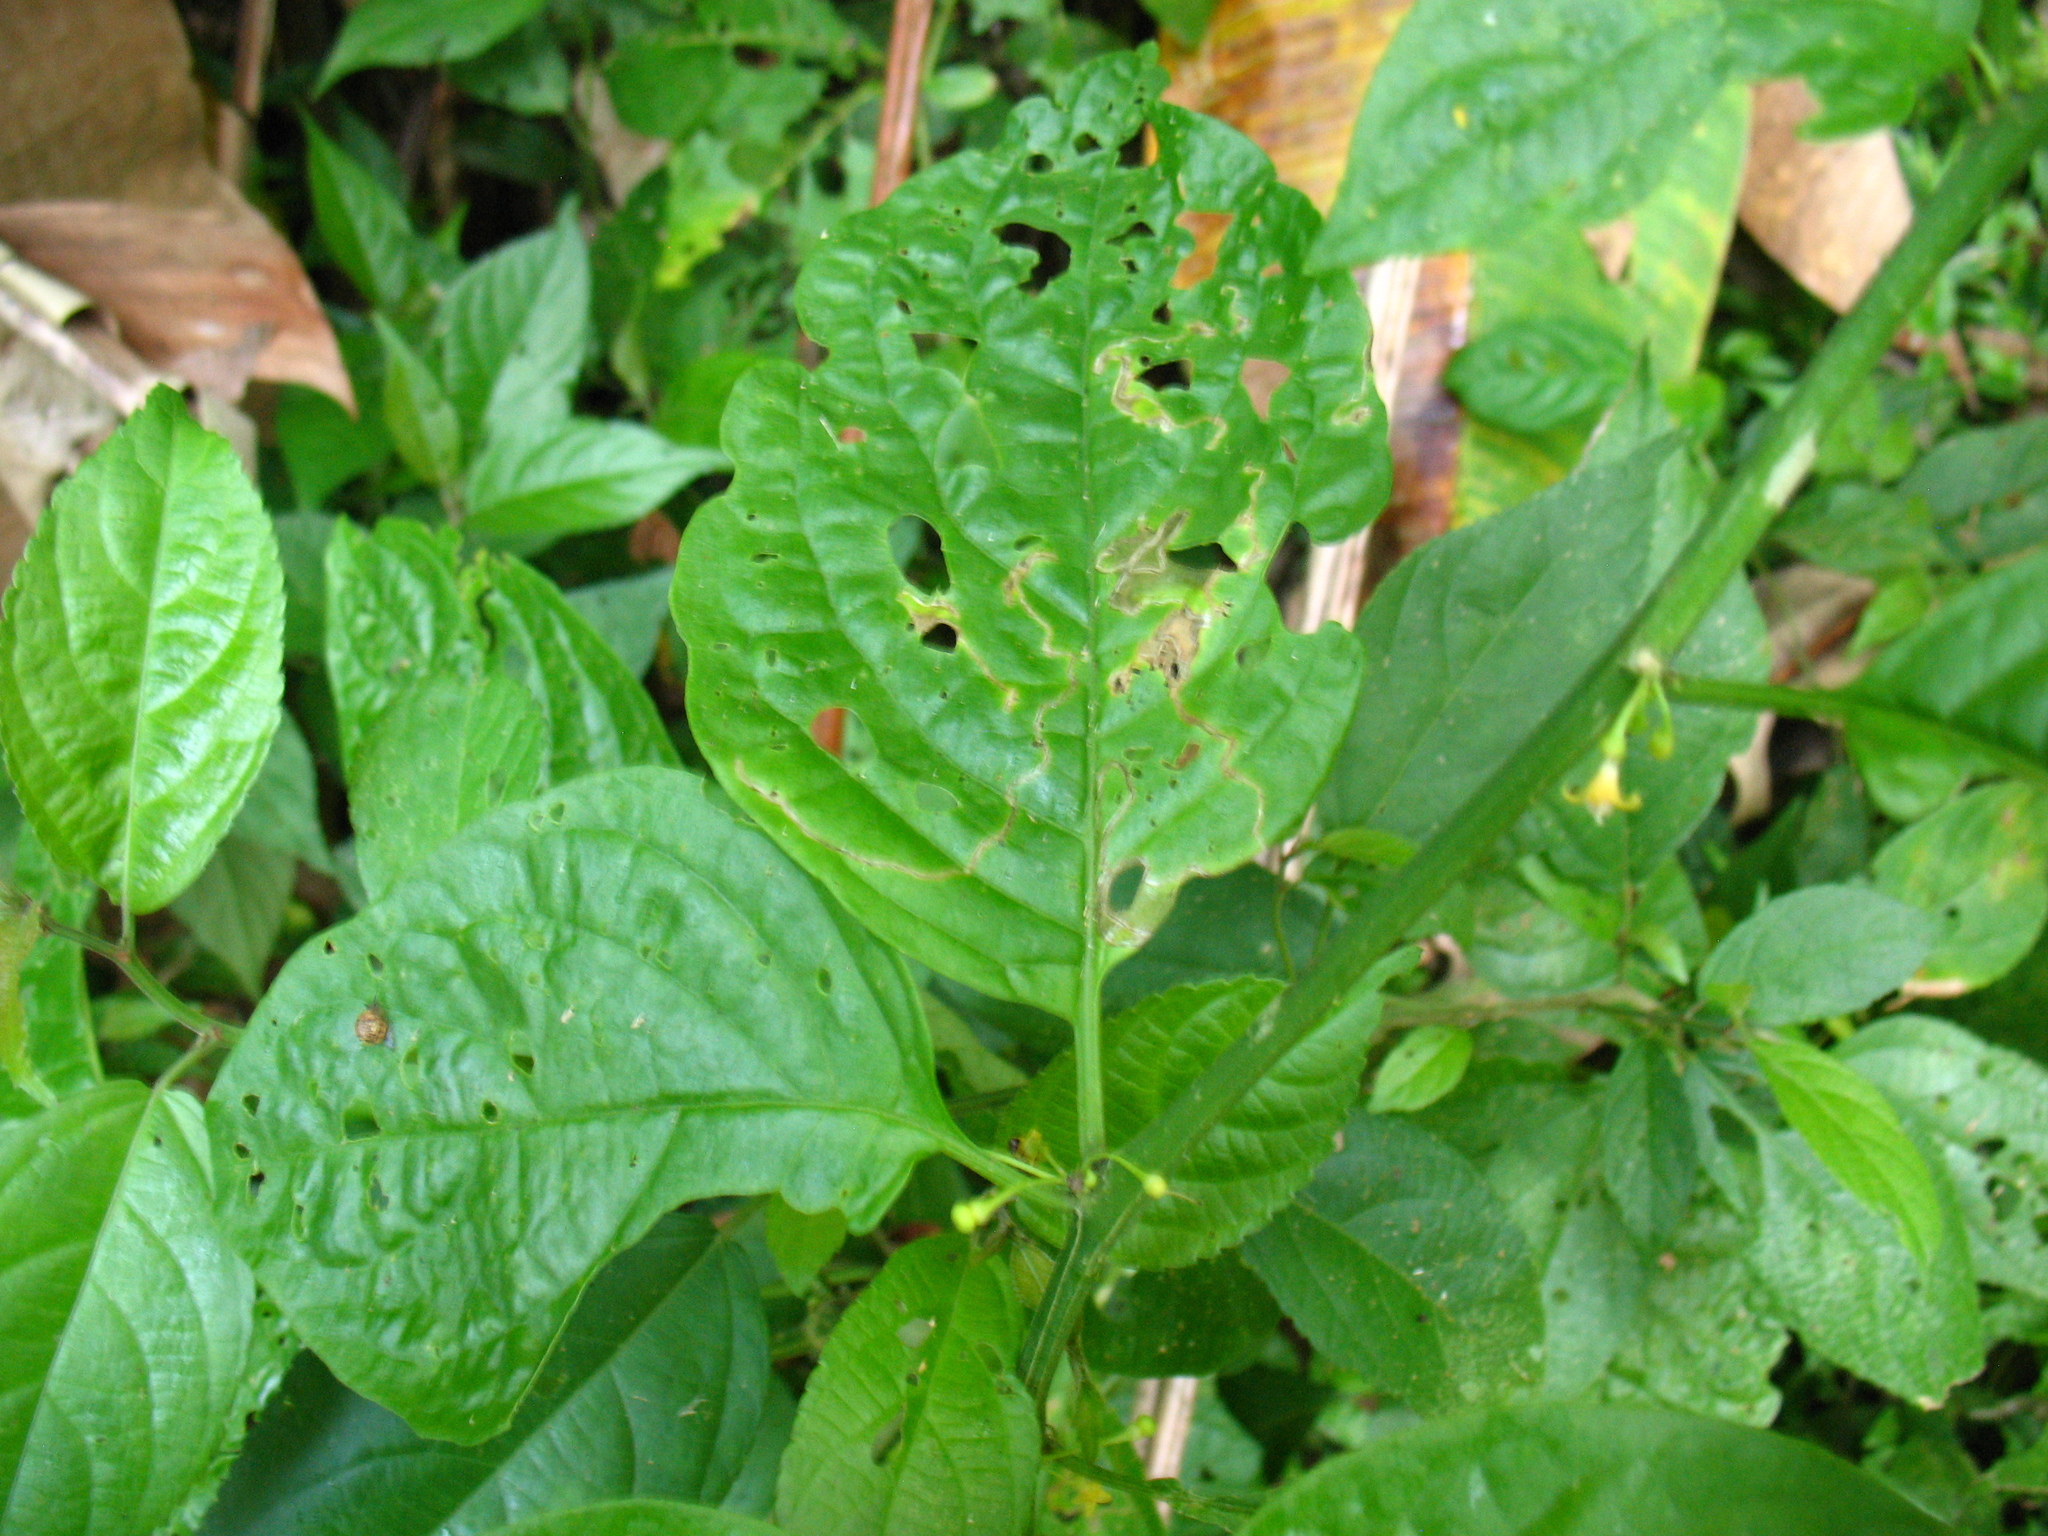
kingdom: Plantae
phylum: Tracheophyta
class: Magnoliopsida
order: Solanales
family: Solanaceae
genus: Witheringia
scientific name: Witheringia meiantha
